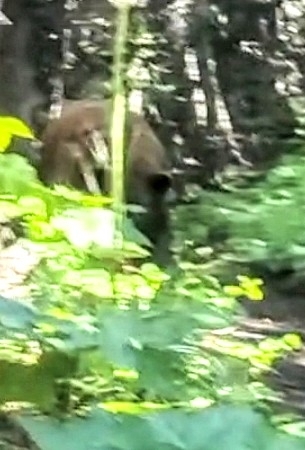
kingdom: Animalia
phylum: Chordata
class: Mammalia
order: Carnivora
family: Ursidae
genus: Ursus
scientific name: Ursus americanus
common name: American black bear
